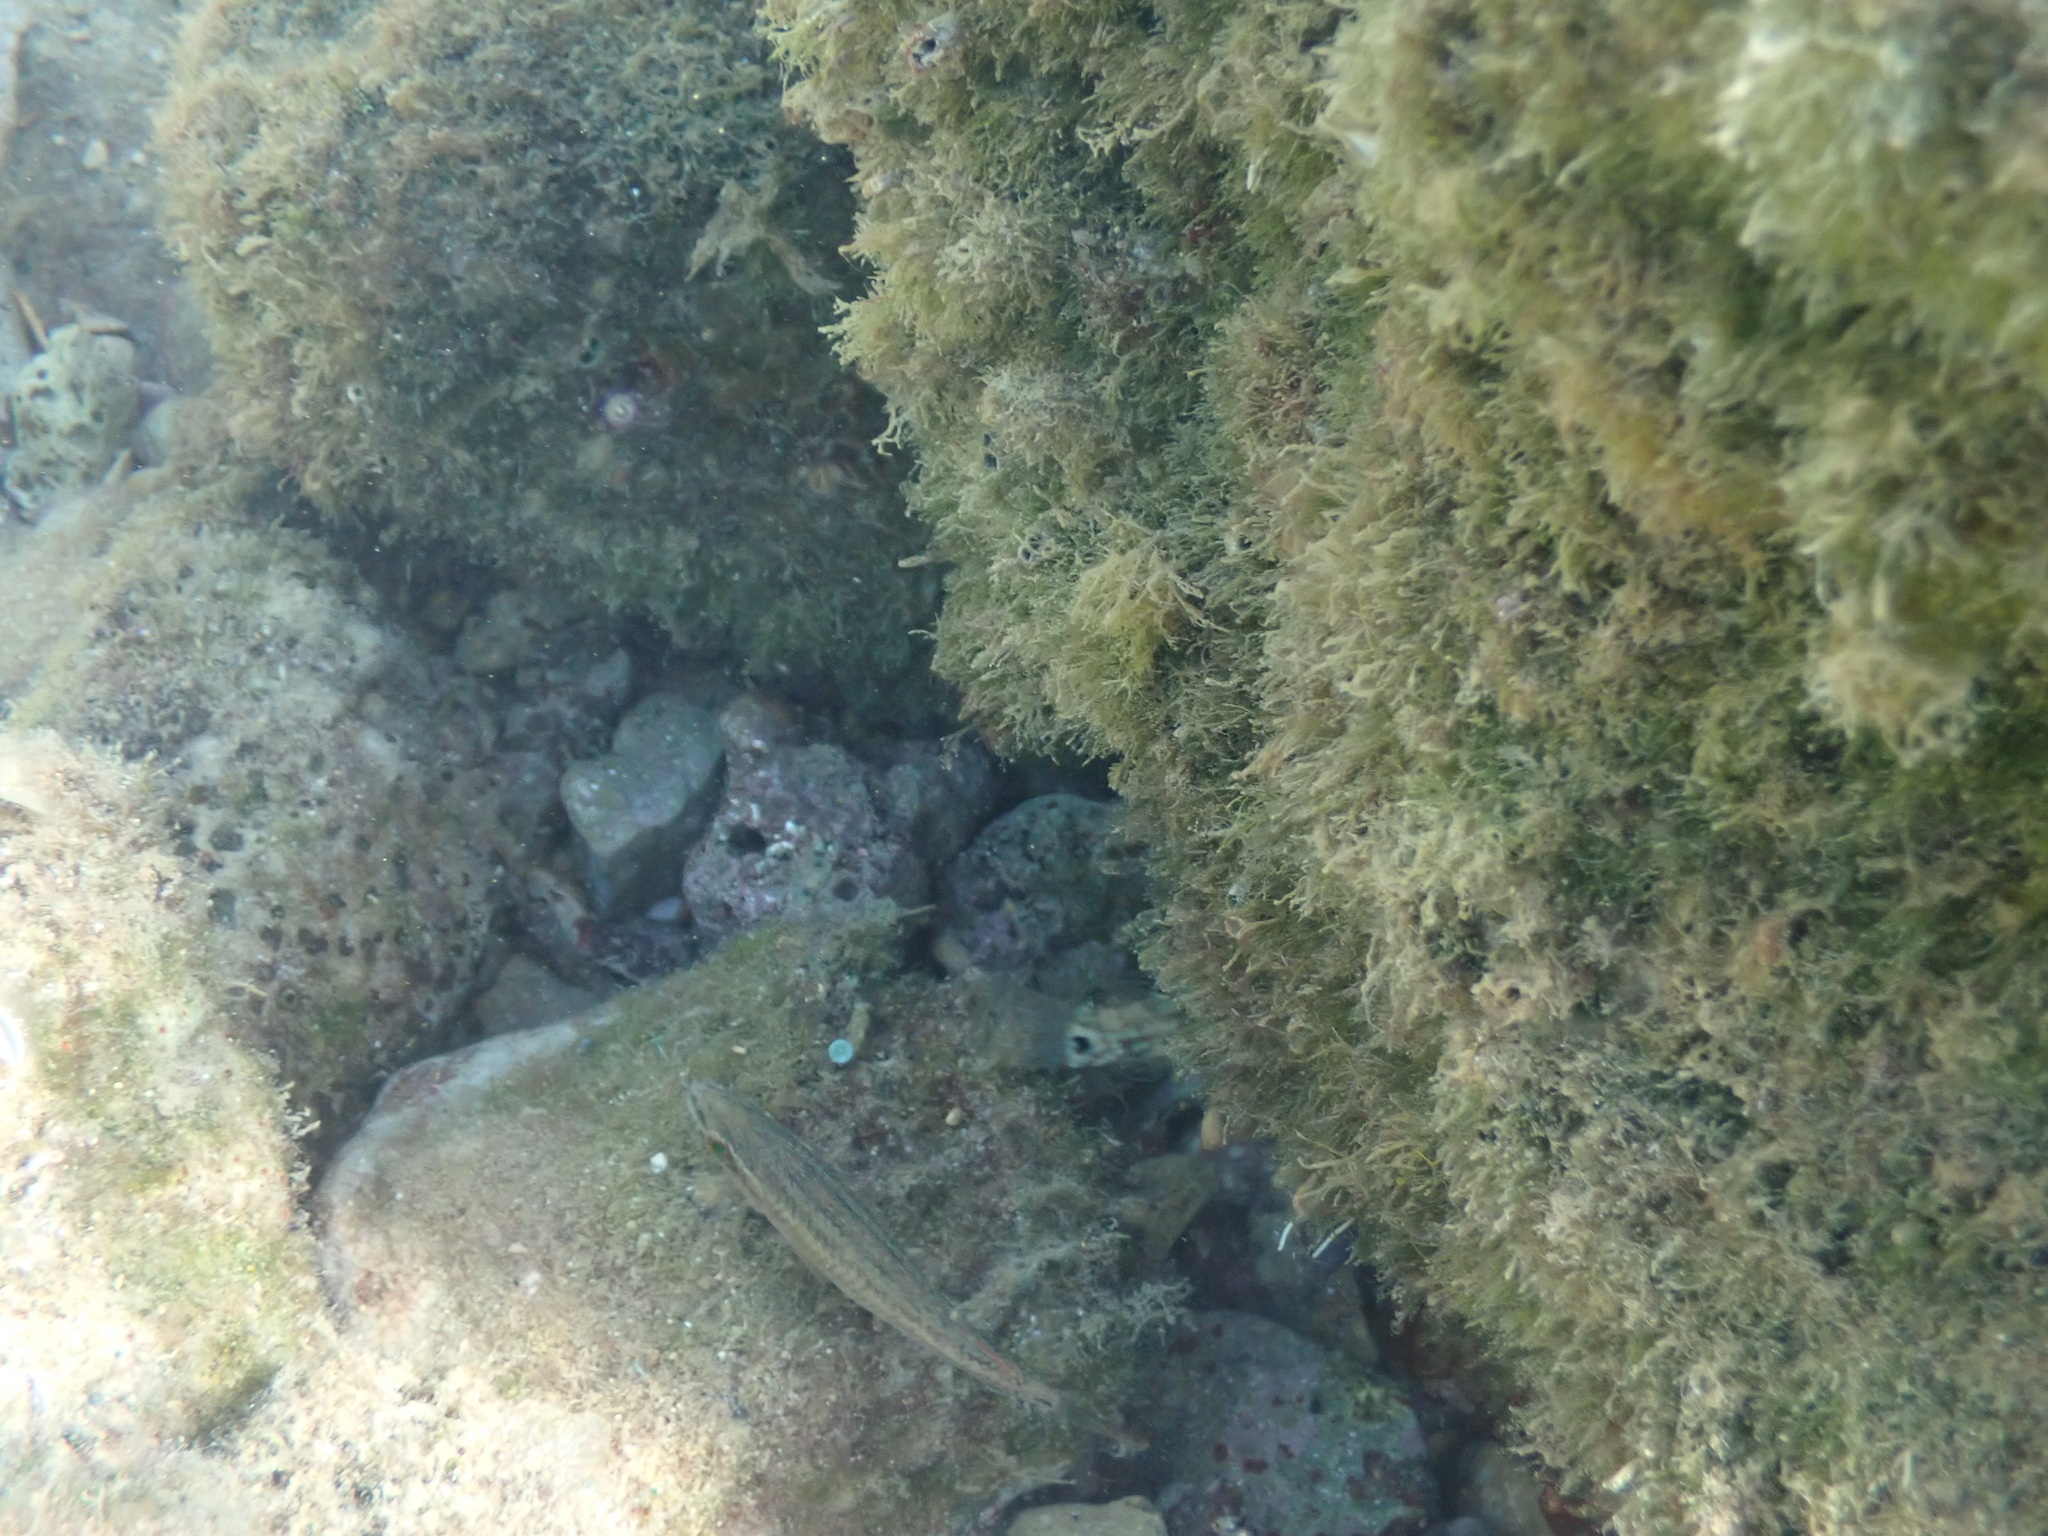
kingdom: Animalia
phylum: Chordata
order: Perciformes
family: Labridae
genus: Symphodus
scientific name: Symphodus roissali
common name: Five-spotted wrasse
